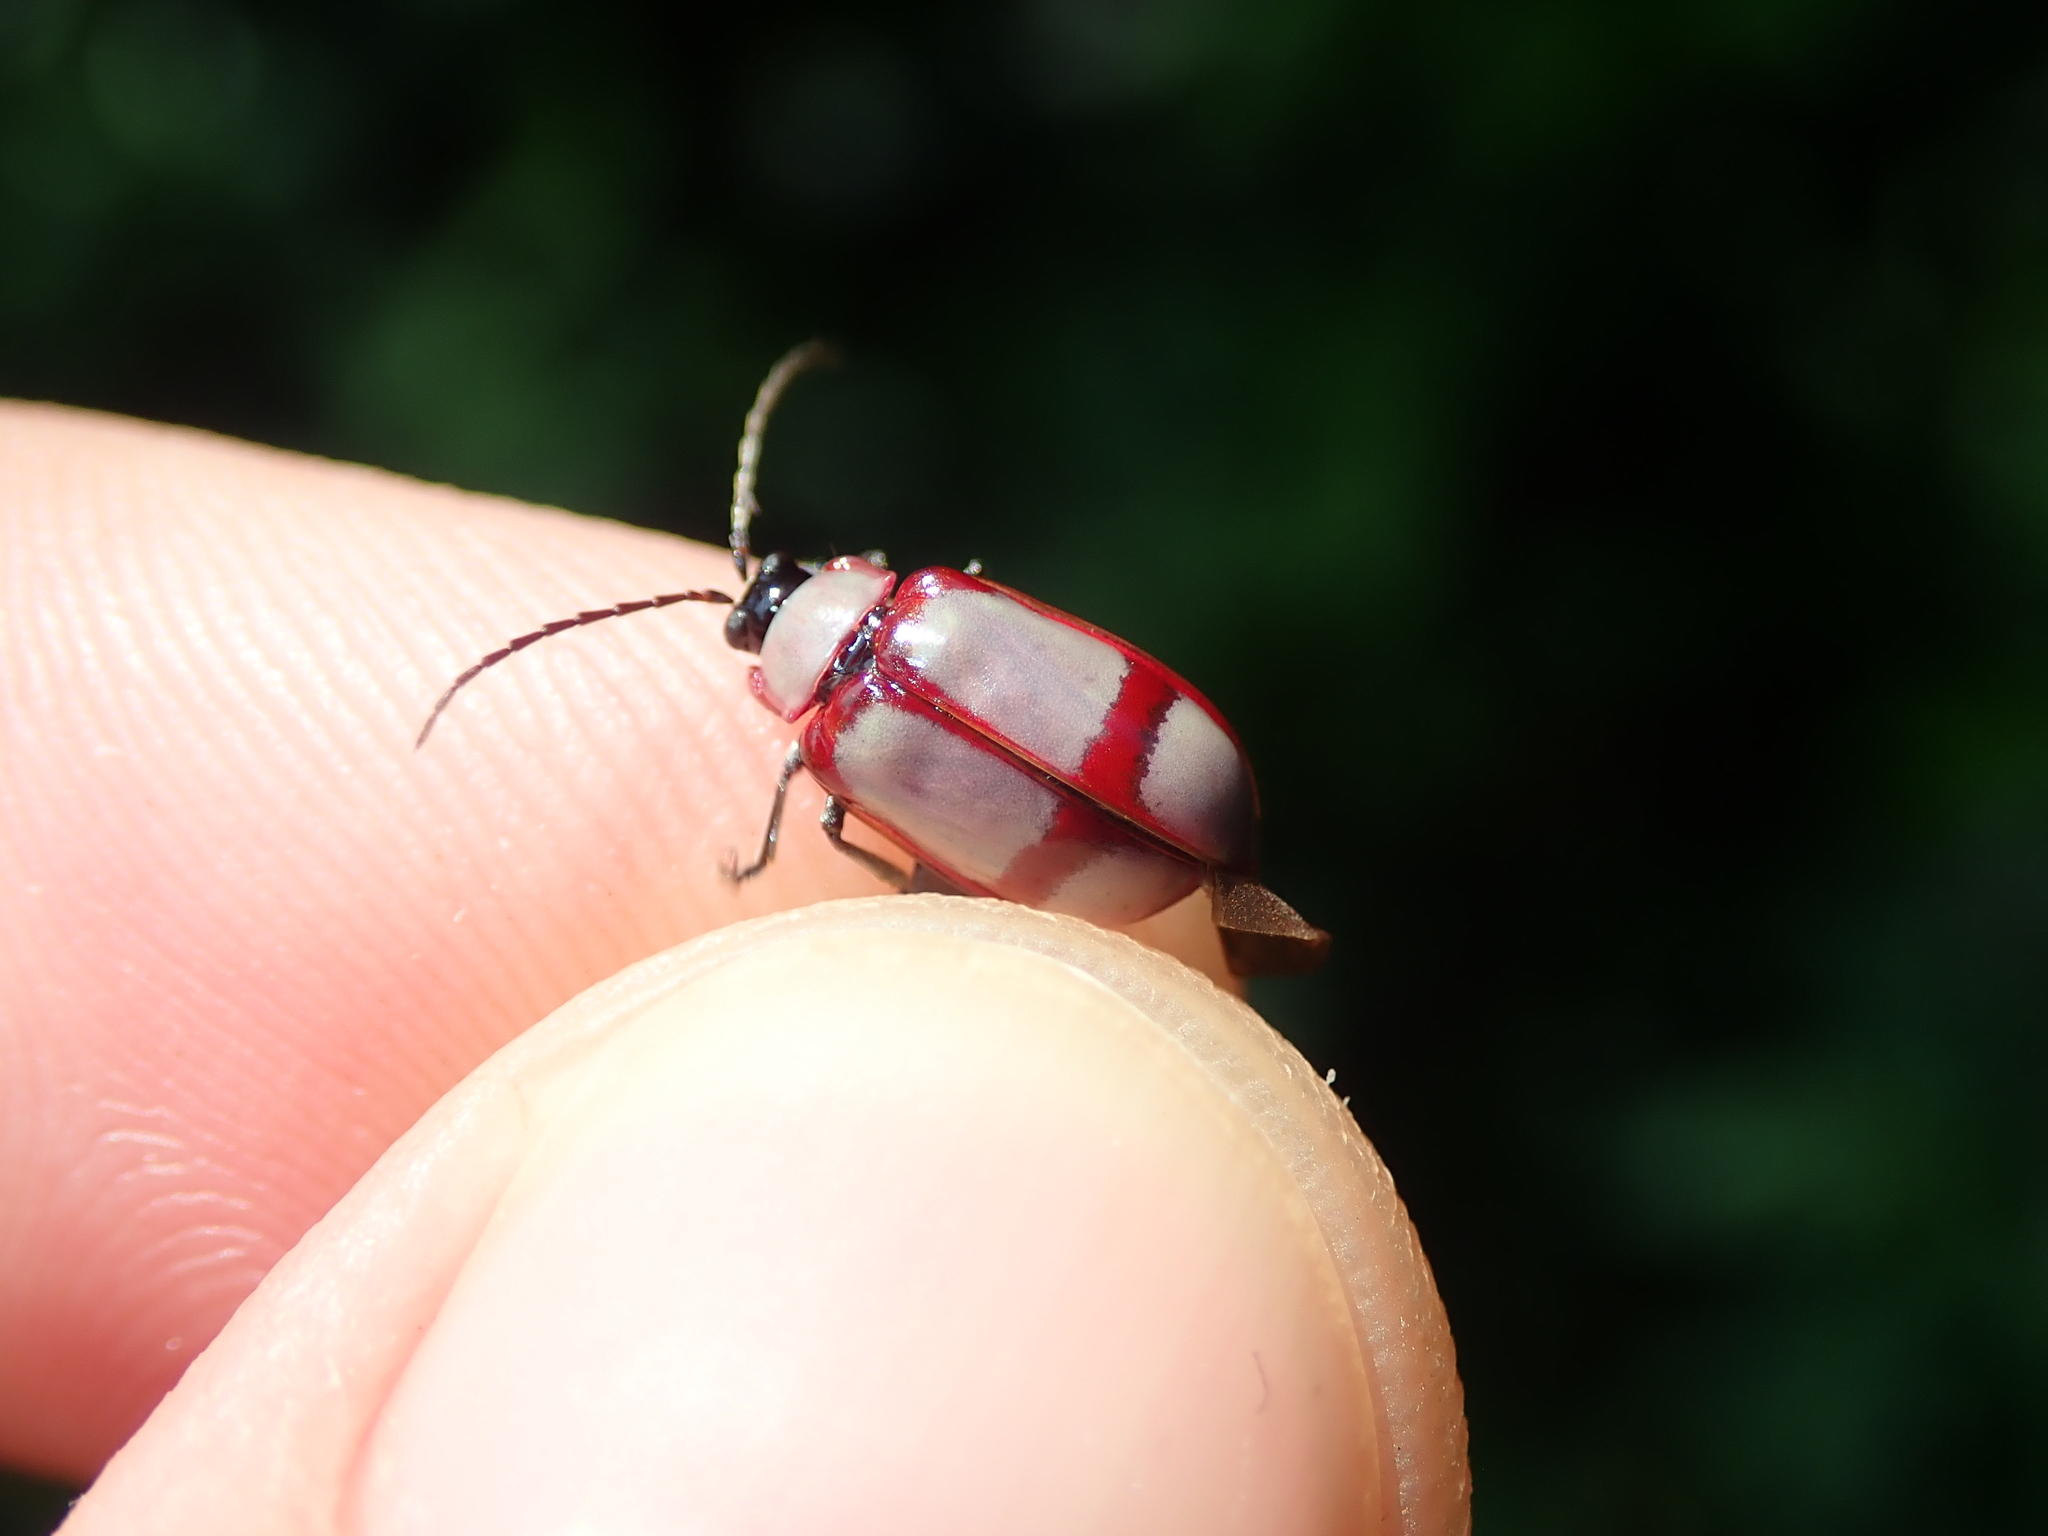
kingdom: Animalia
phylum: Arthropoda
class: Insecta
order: Coleoptera
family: Chrysomelidae
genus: Omophoita
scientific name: Omophoita
